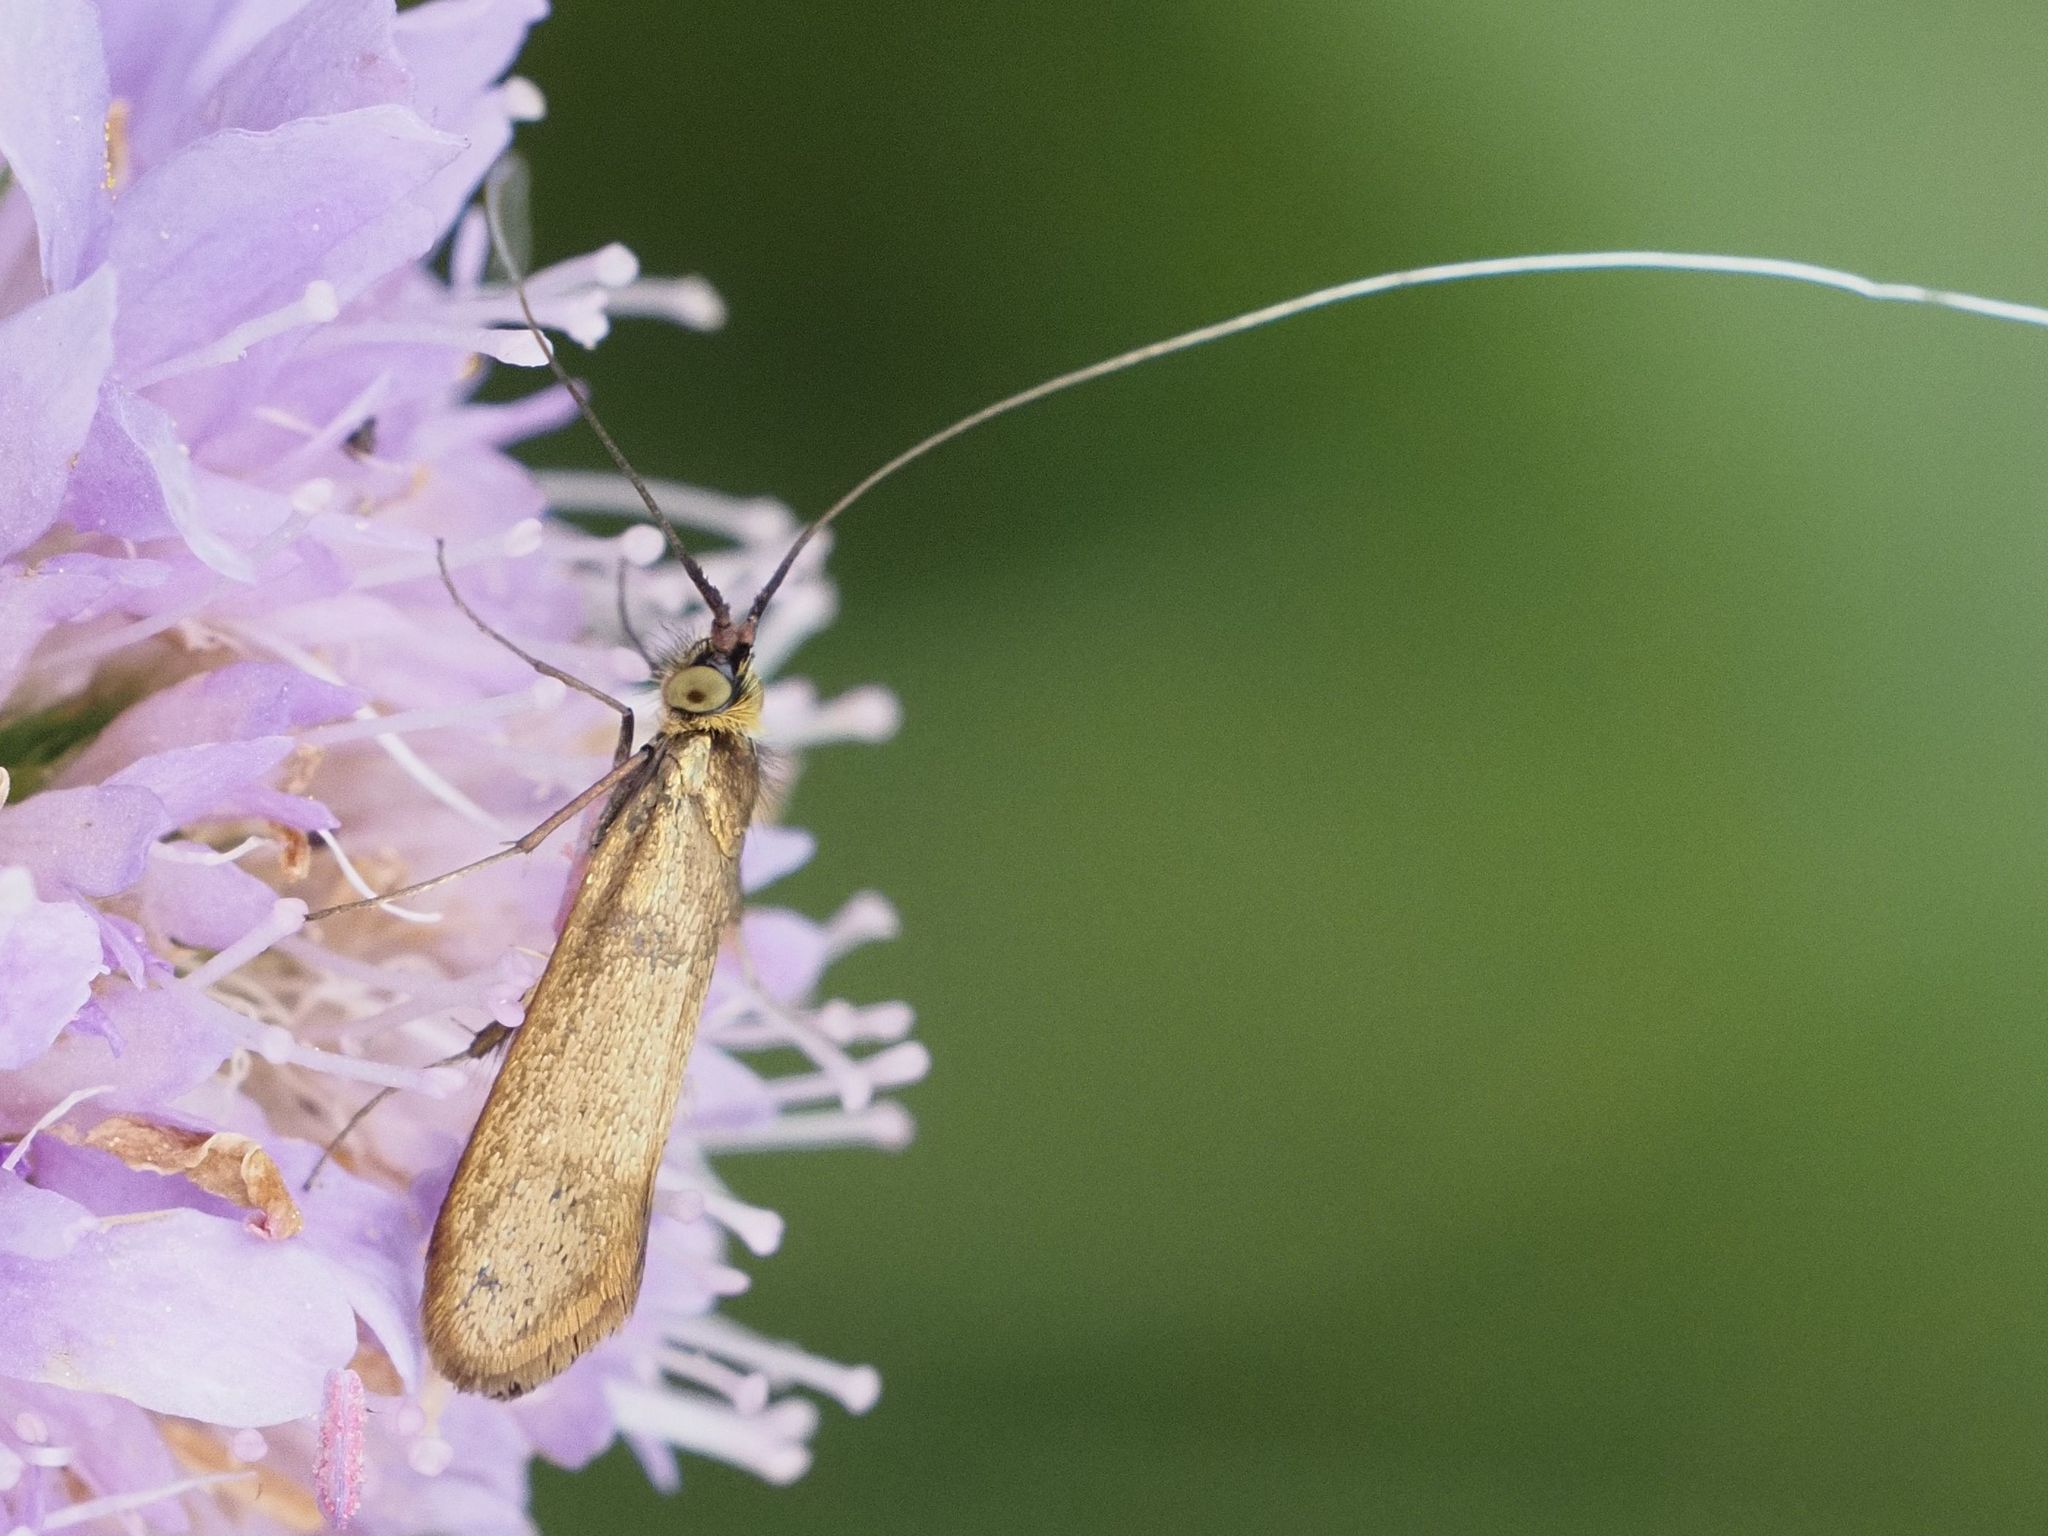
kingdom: Animalia
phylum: Arthropoda
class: Insecta
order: Lepidoptera
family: Adelidae
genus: Nemophora
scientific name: Nemophora metallica
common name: Brassy long-horn
